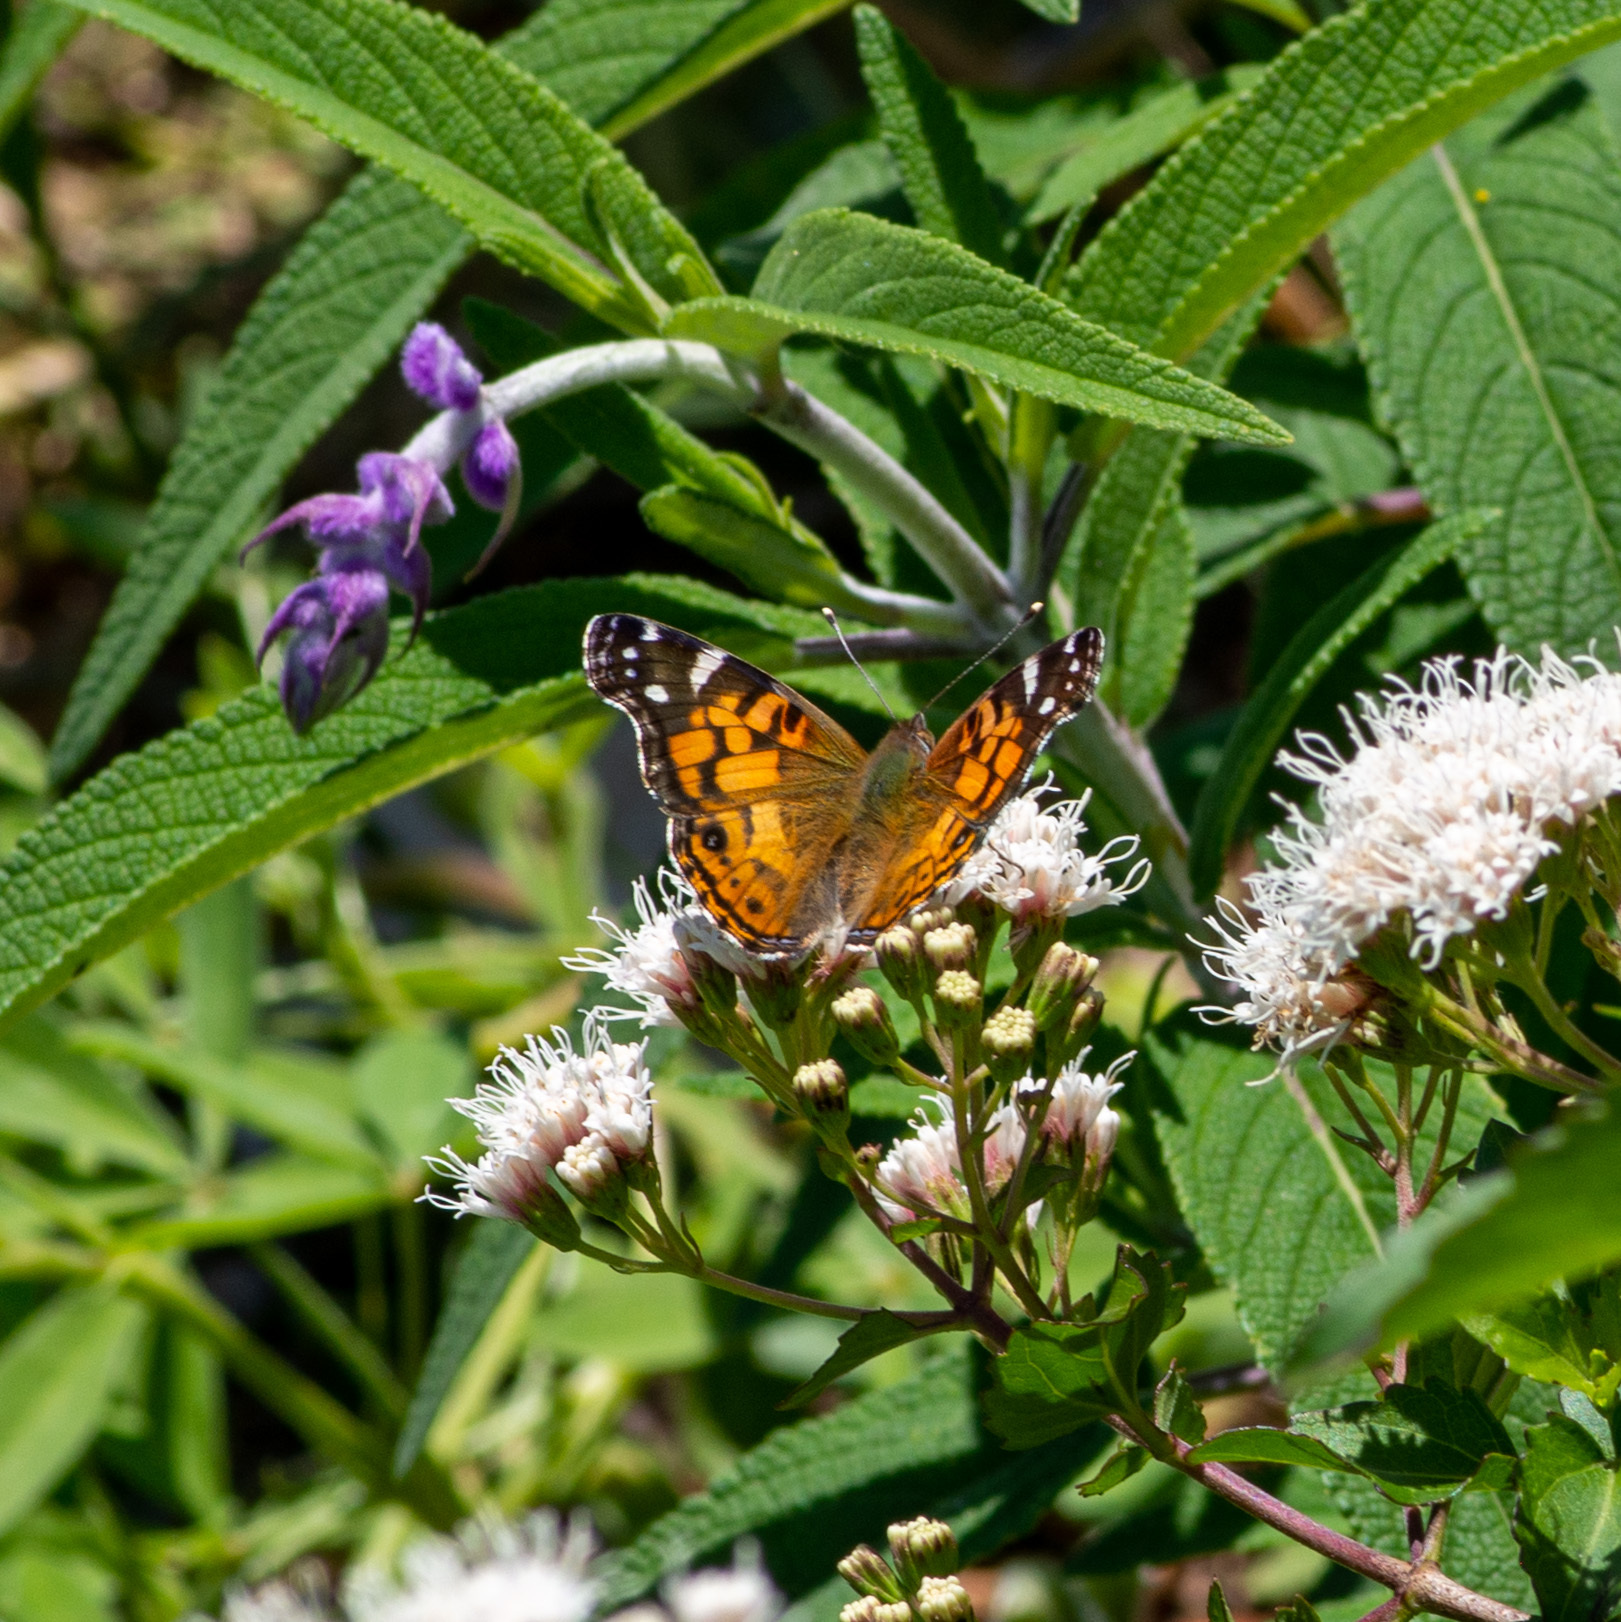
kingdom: Animalia
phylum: Arthropoda
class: Insecta
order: Lepidoptera
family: Nymphalidae
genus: Vanessa
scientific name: Vanessa virginiensis
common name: American lady
